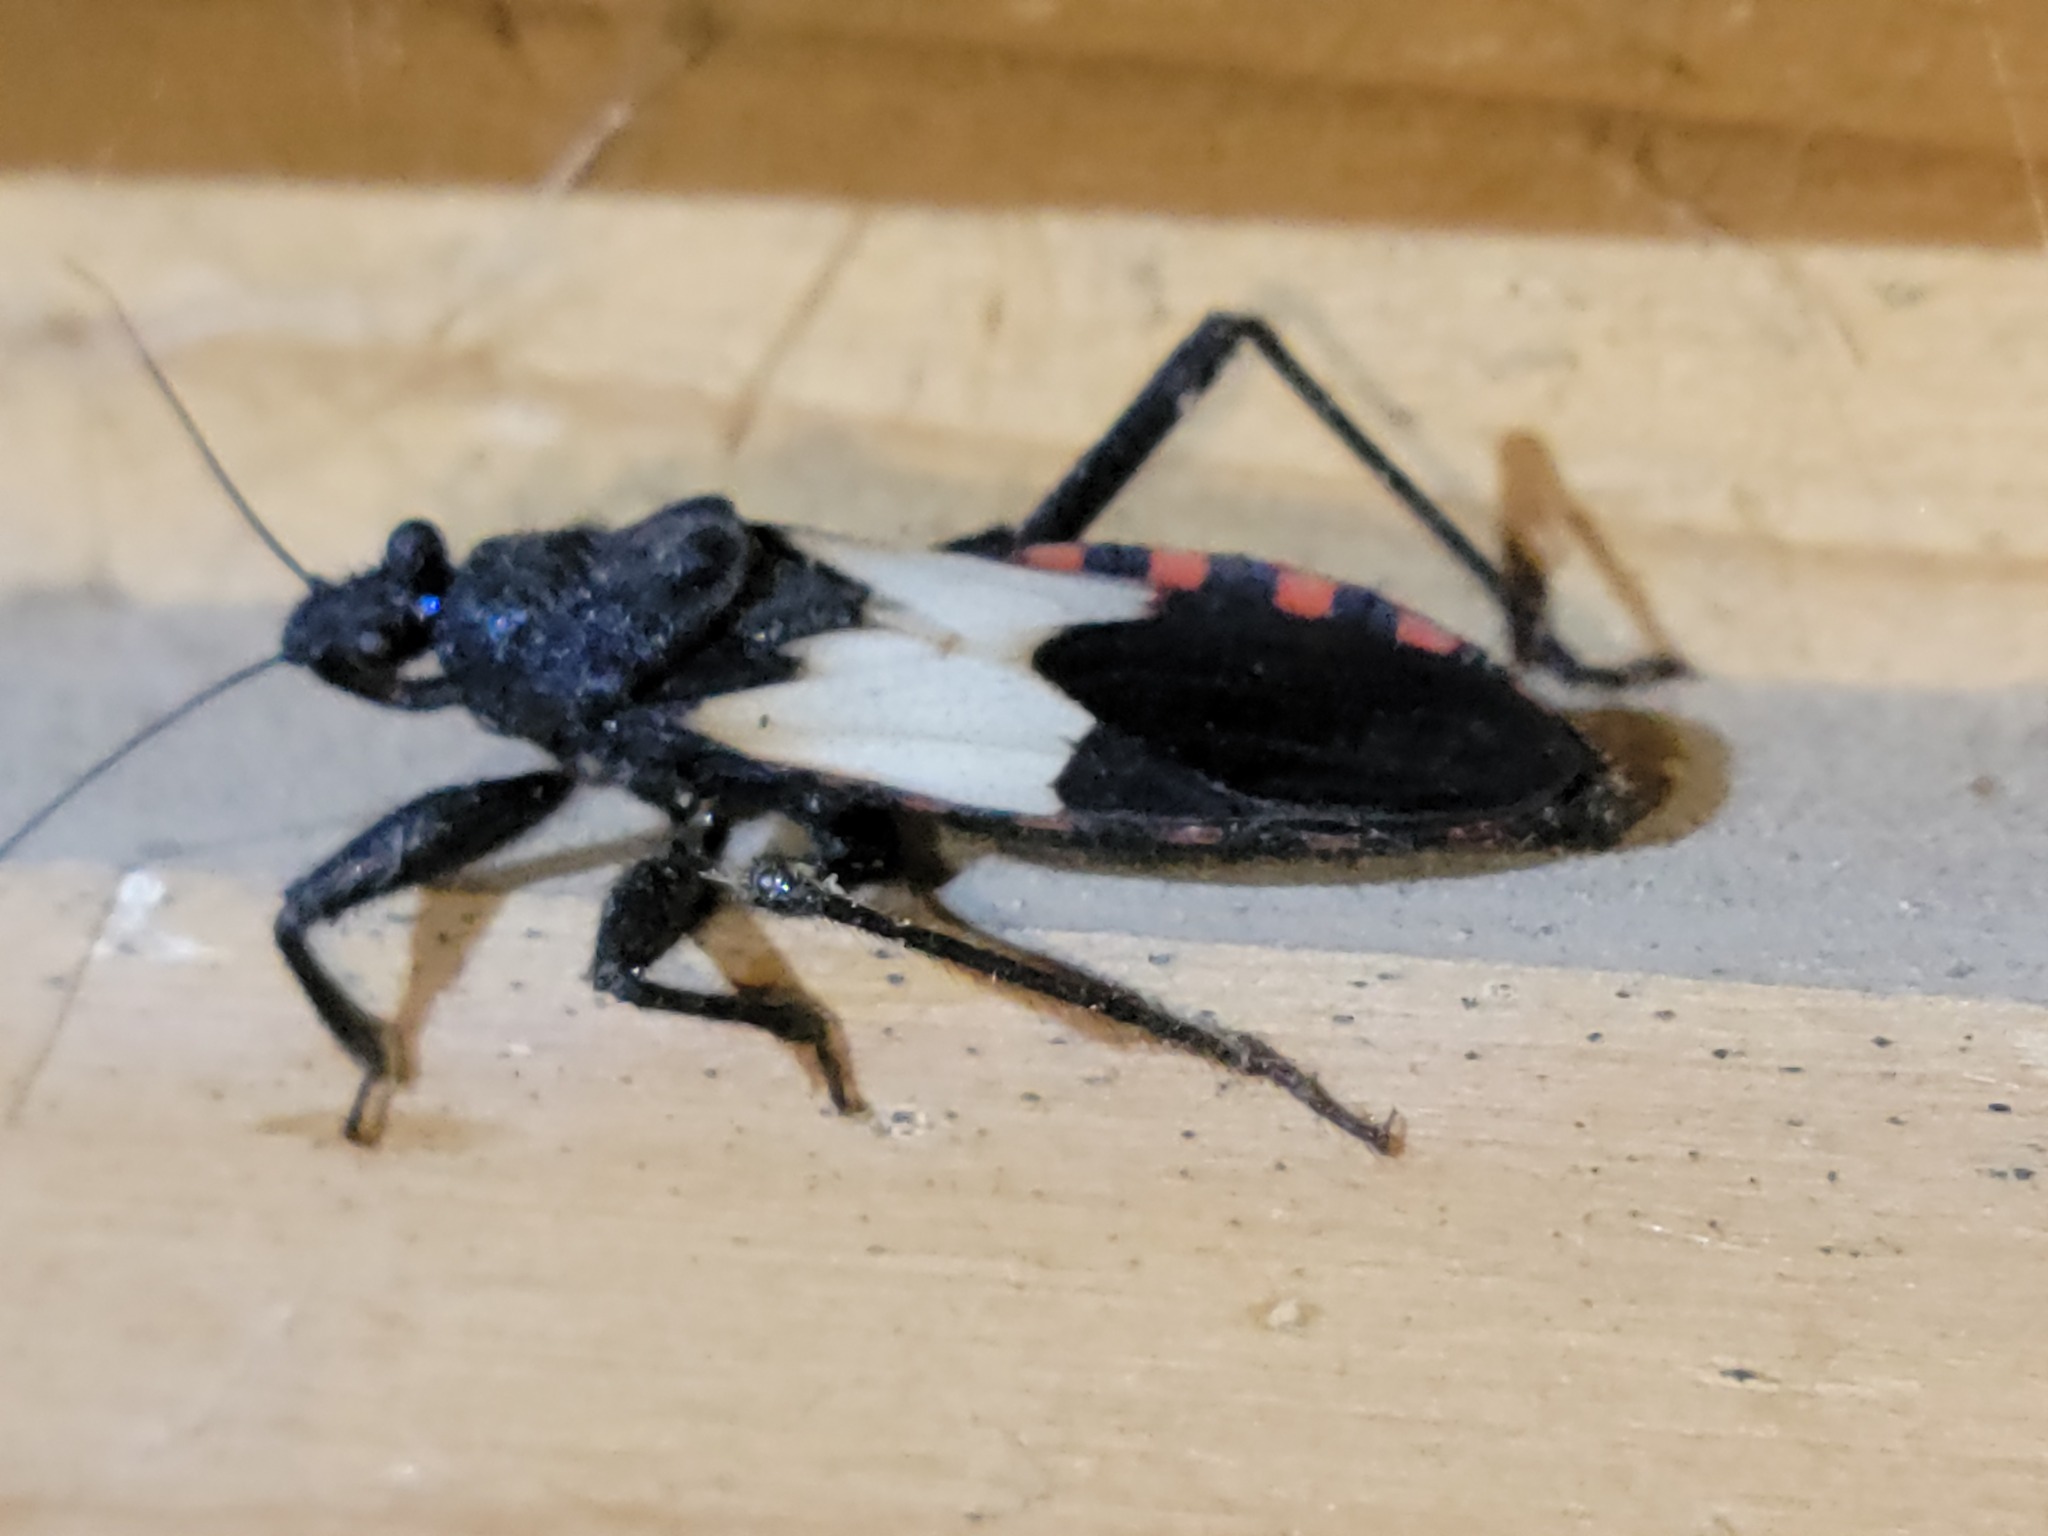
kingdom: Animalia
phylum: Arthropoda
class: Insecta
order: Hemiptera
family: Reduviidae
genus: Microtomus
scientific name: Microtomus luctuosus
